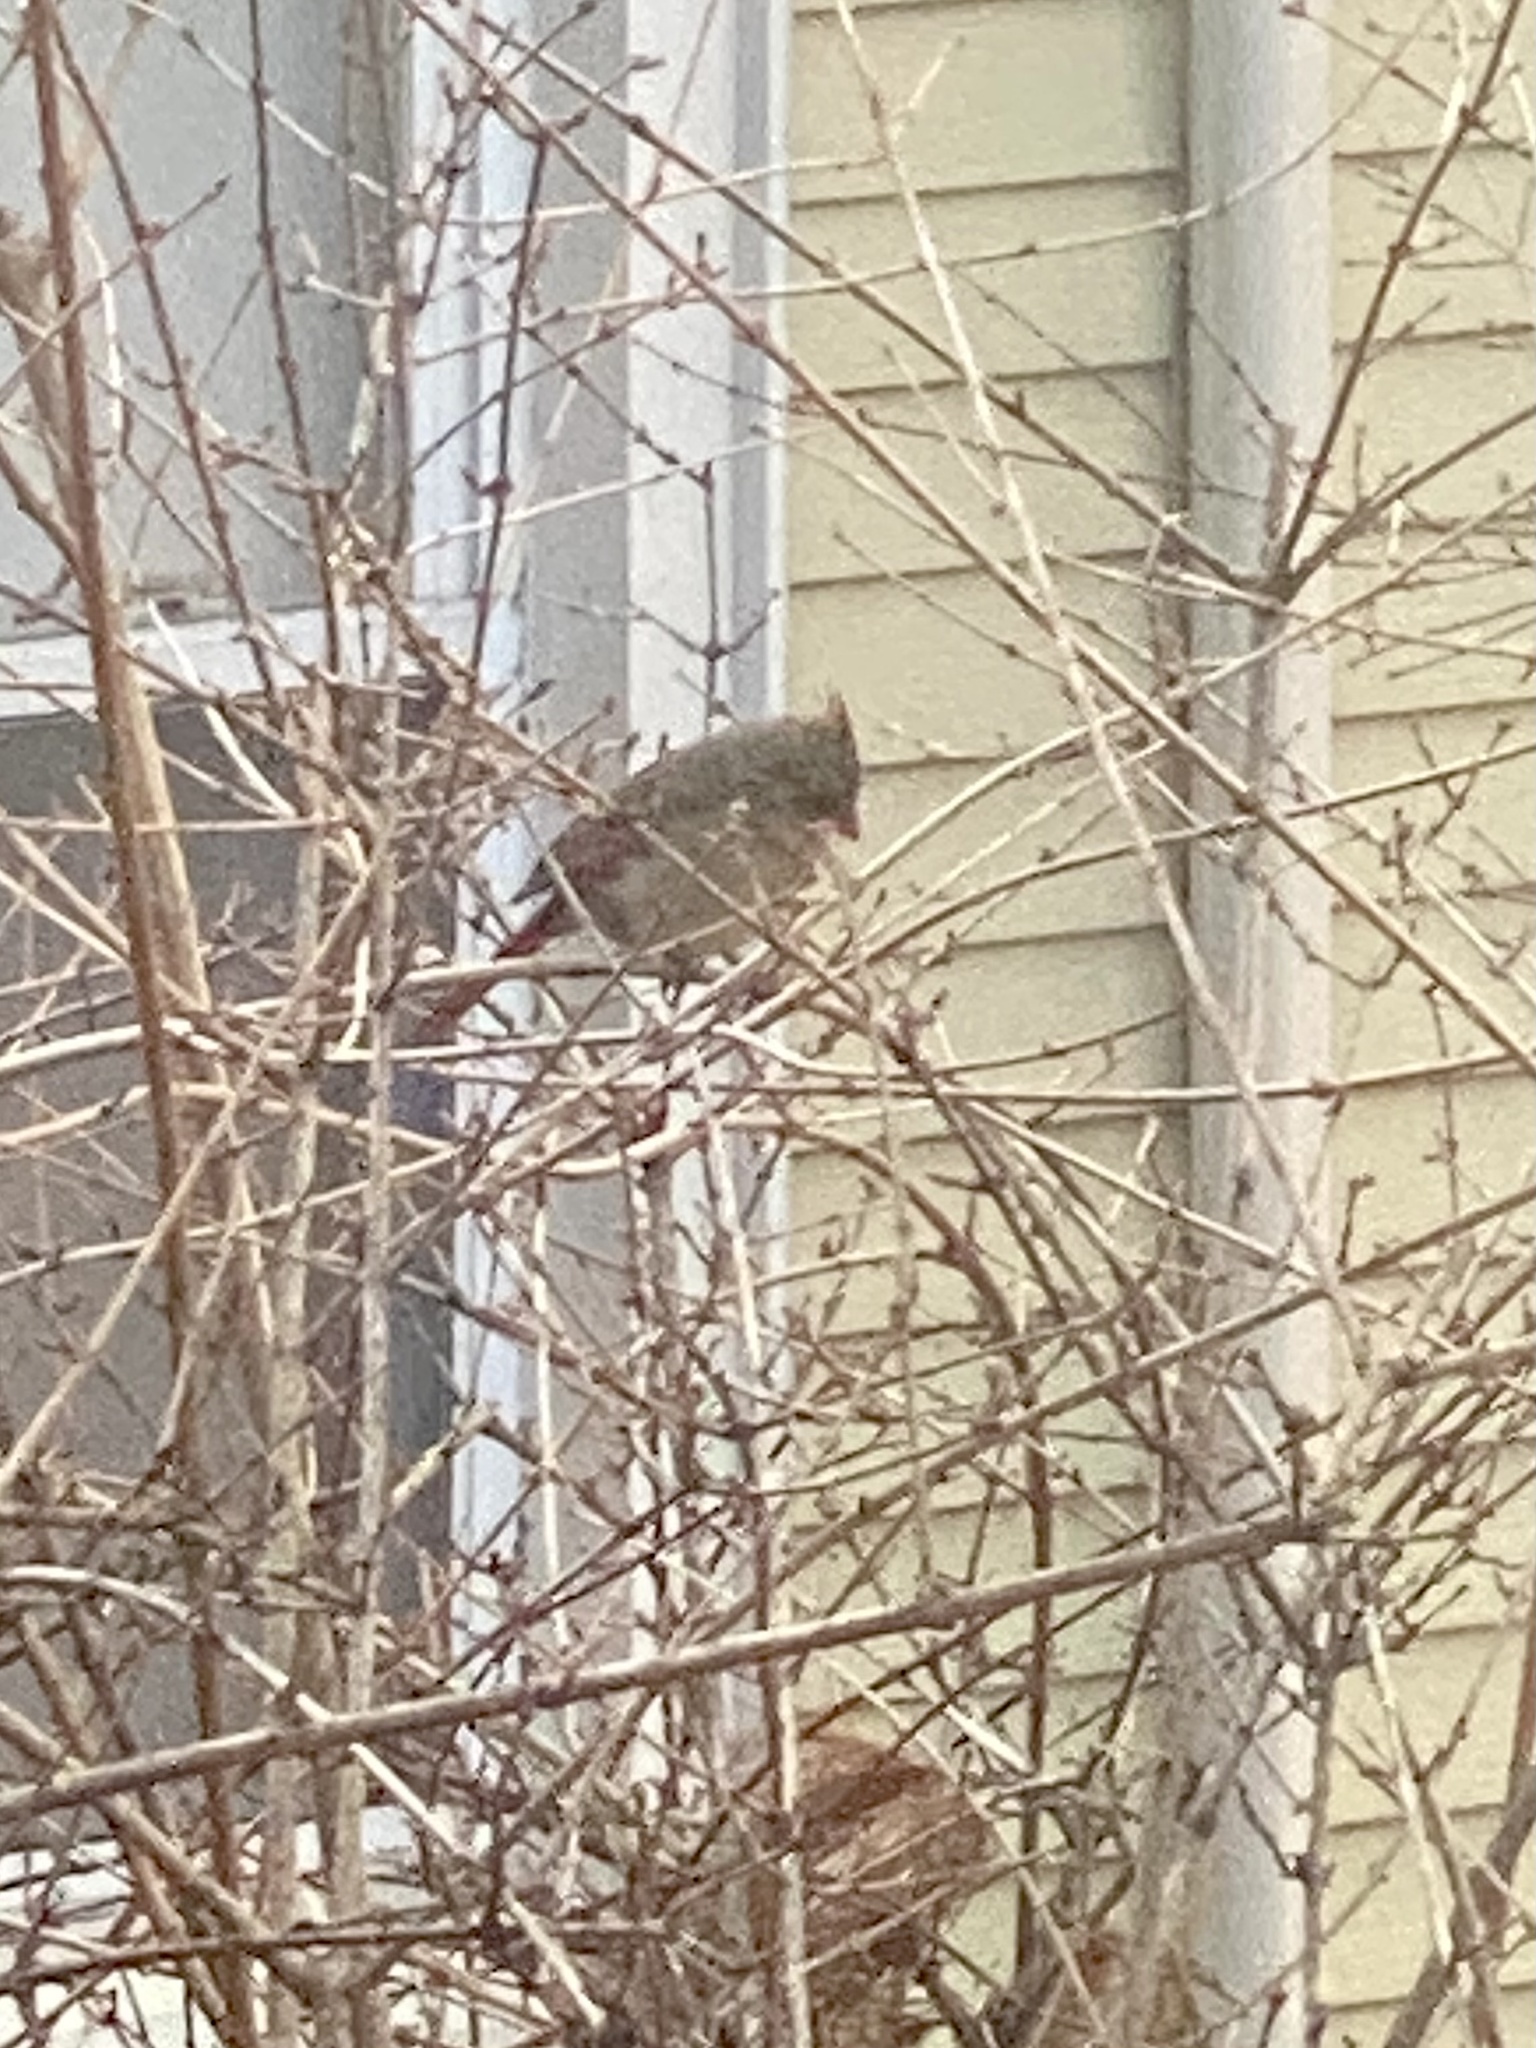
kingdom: Animalia
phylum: Chordata
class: Aves
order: Passeriformes
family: Cardinalidae
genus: Cardinalis
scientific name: Cardinalis cardinalis
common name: Northern cardinal
